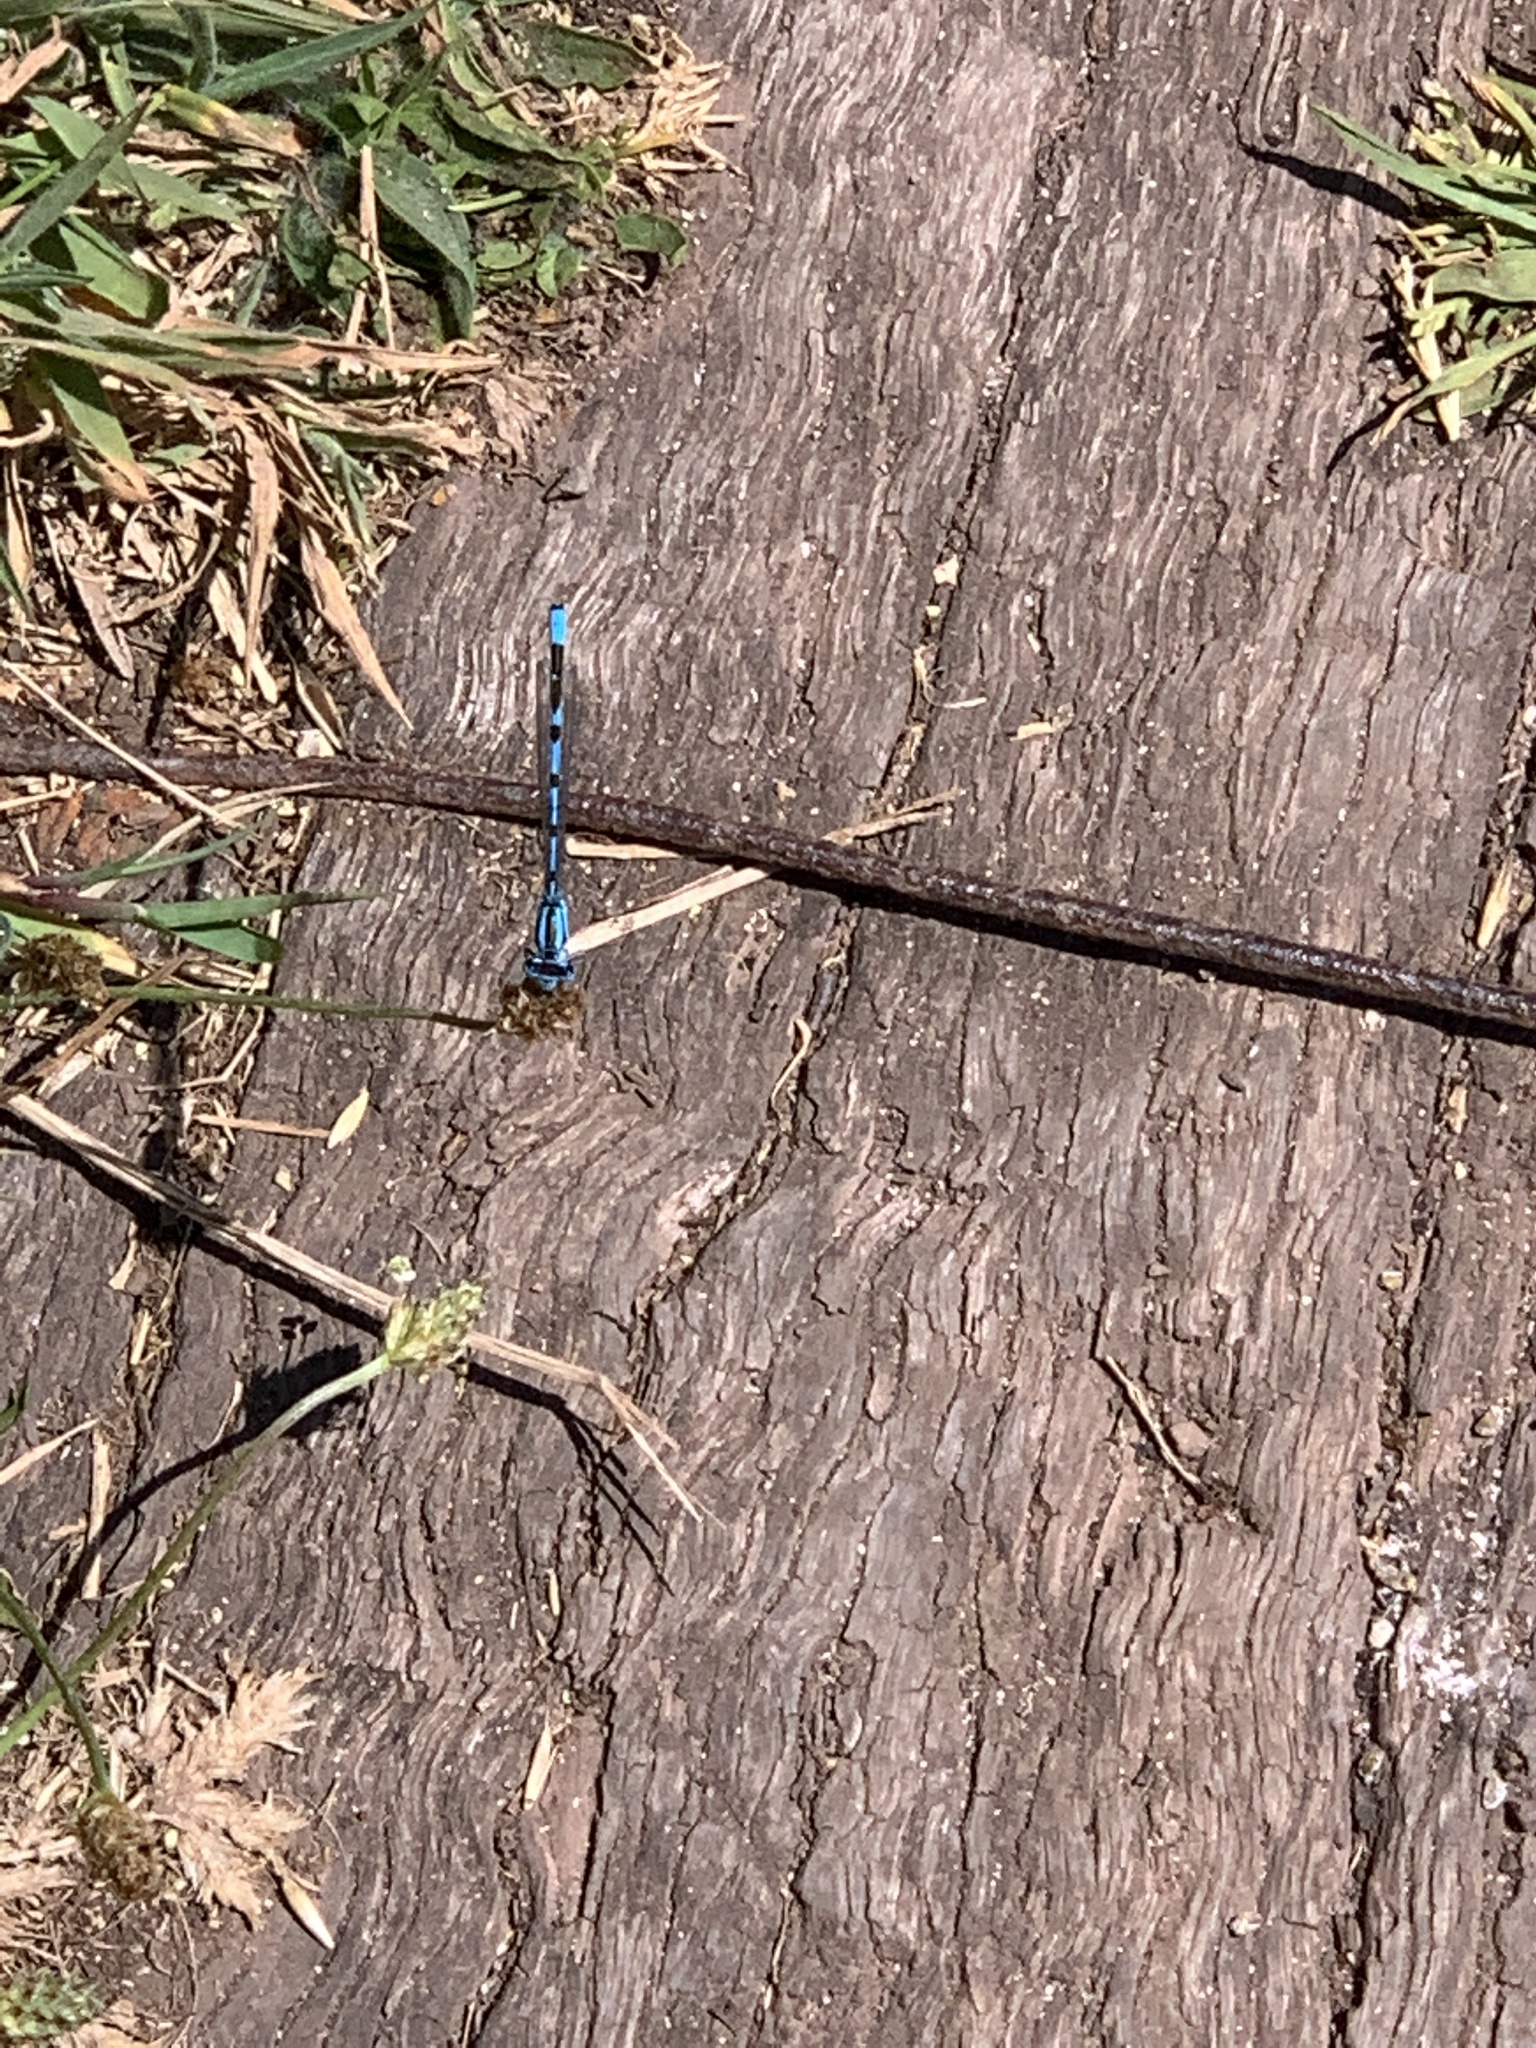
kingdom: Animalia
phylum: Arthropoda
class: Insecta
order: Odonata
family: Coenagrionidae
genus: Enallagma
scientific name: Enallagma cyathigerum
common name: Common blue damselfly
